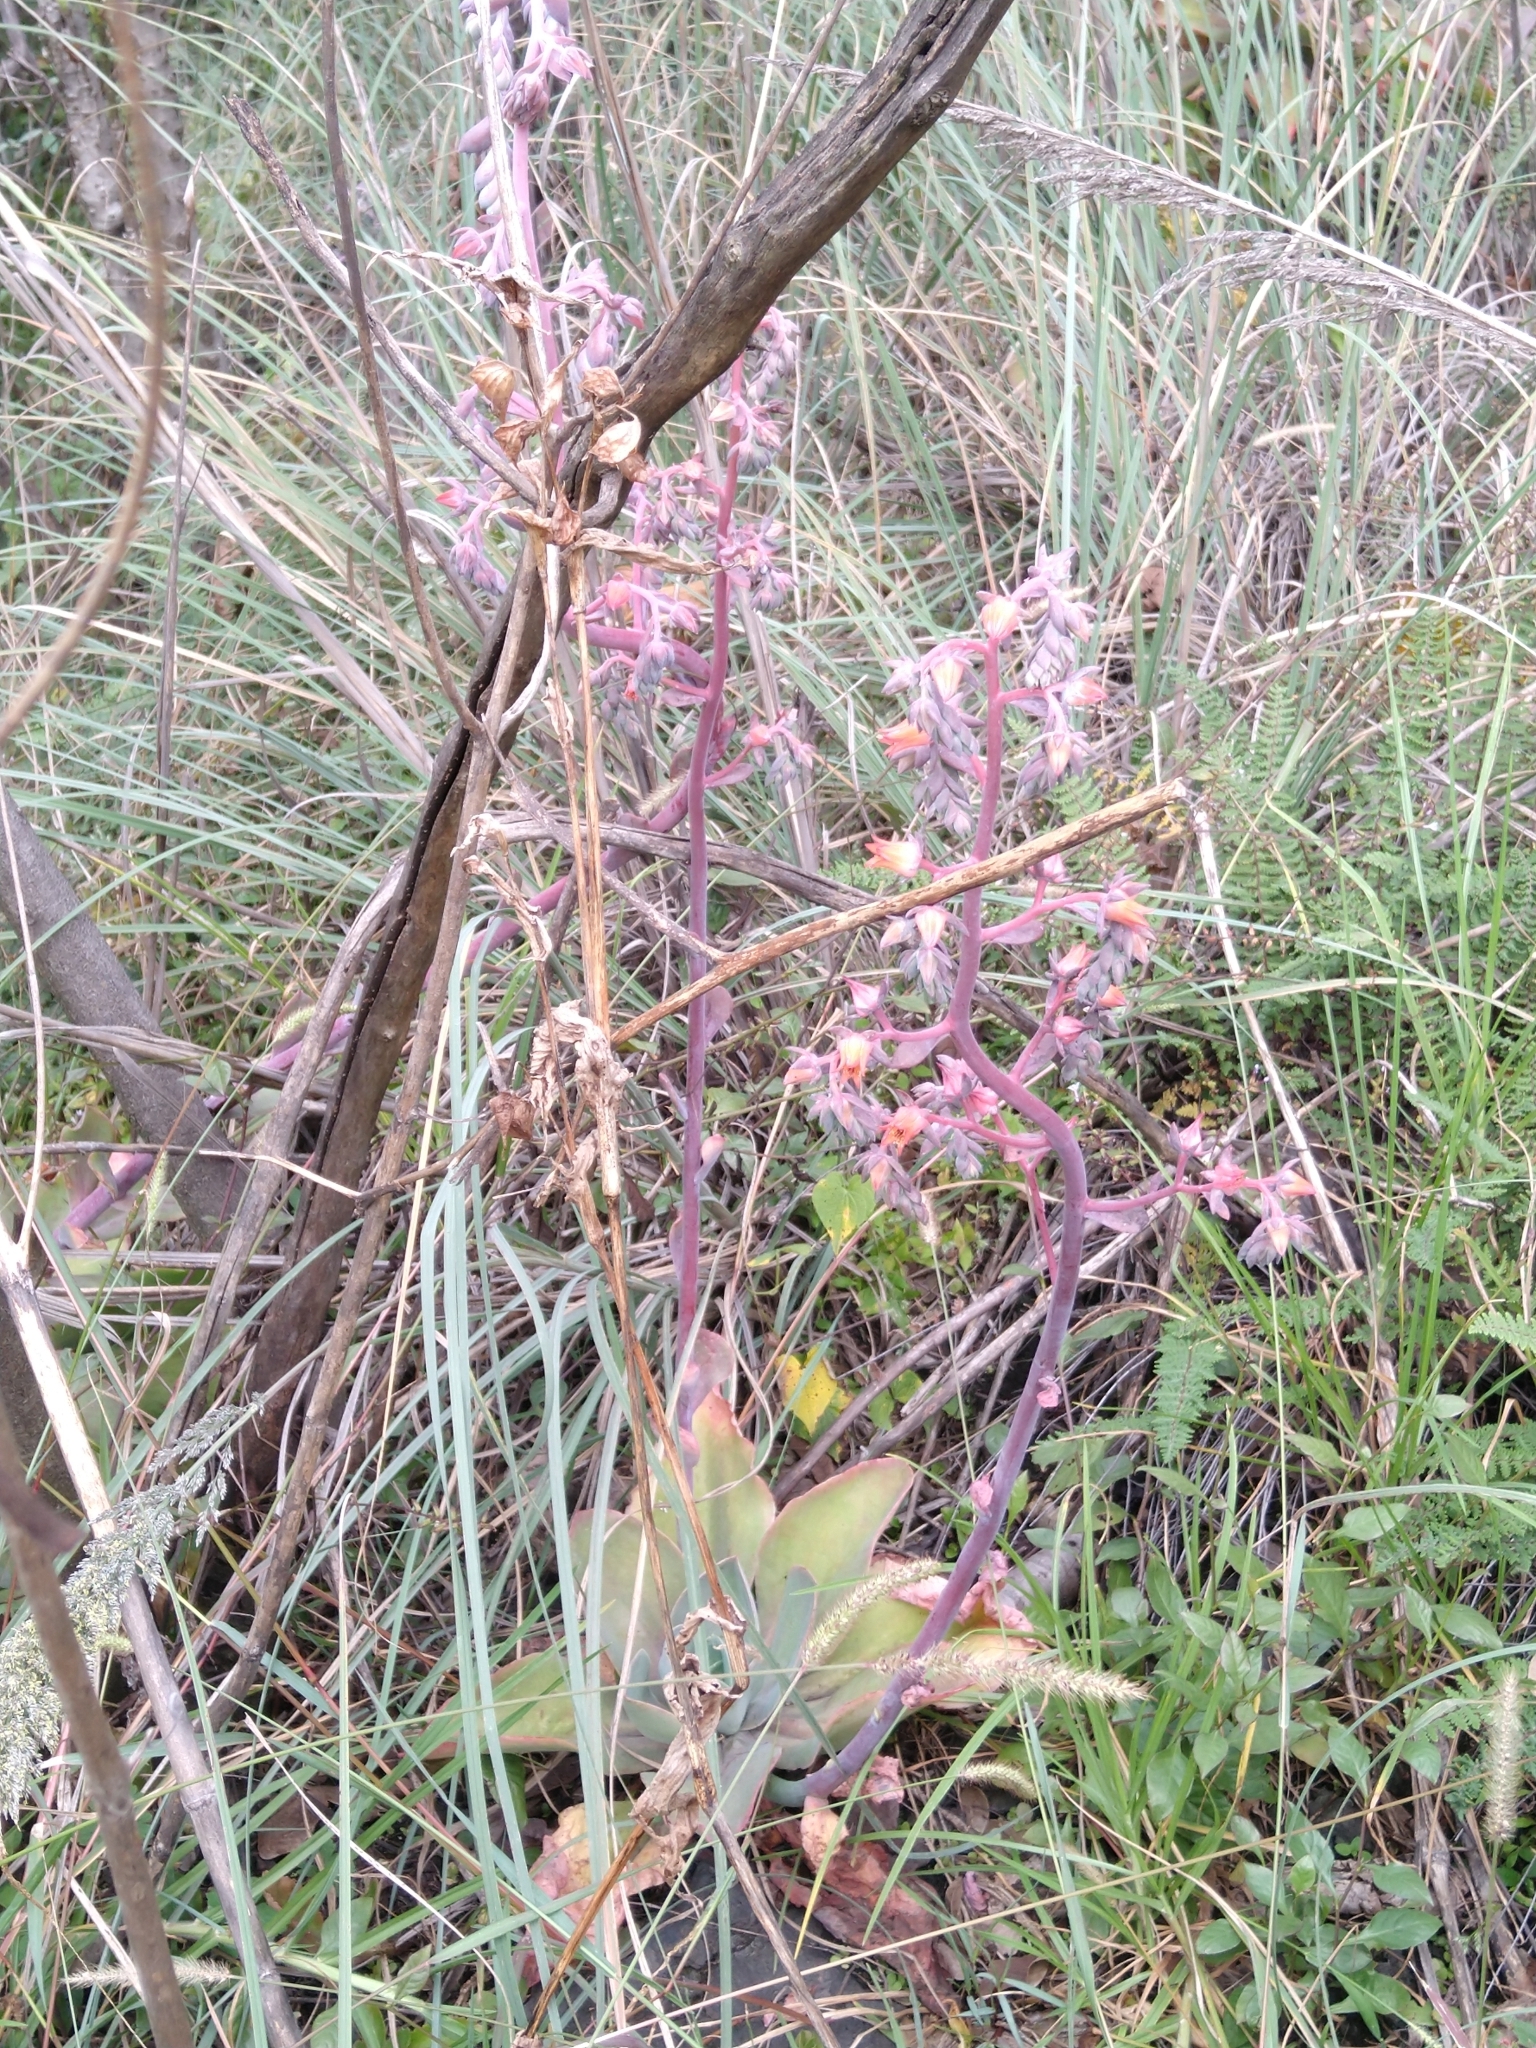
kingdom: Plantae
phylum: Tracheophyta
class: Magnoliopsida
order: Saxifragales
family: Crassulaceae
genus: Echeveria
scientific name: Echeveria gibbiflora
